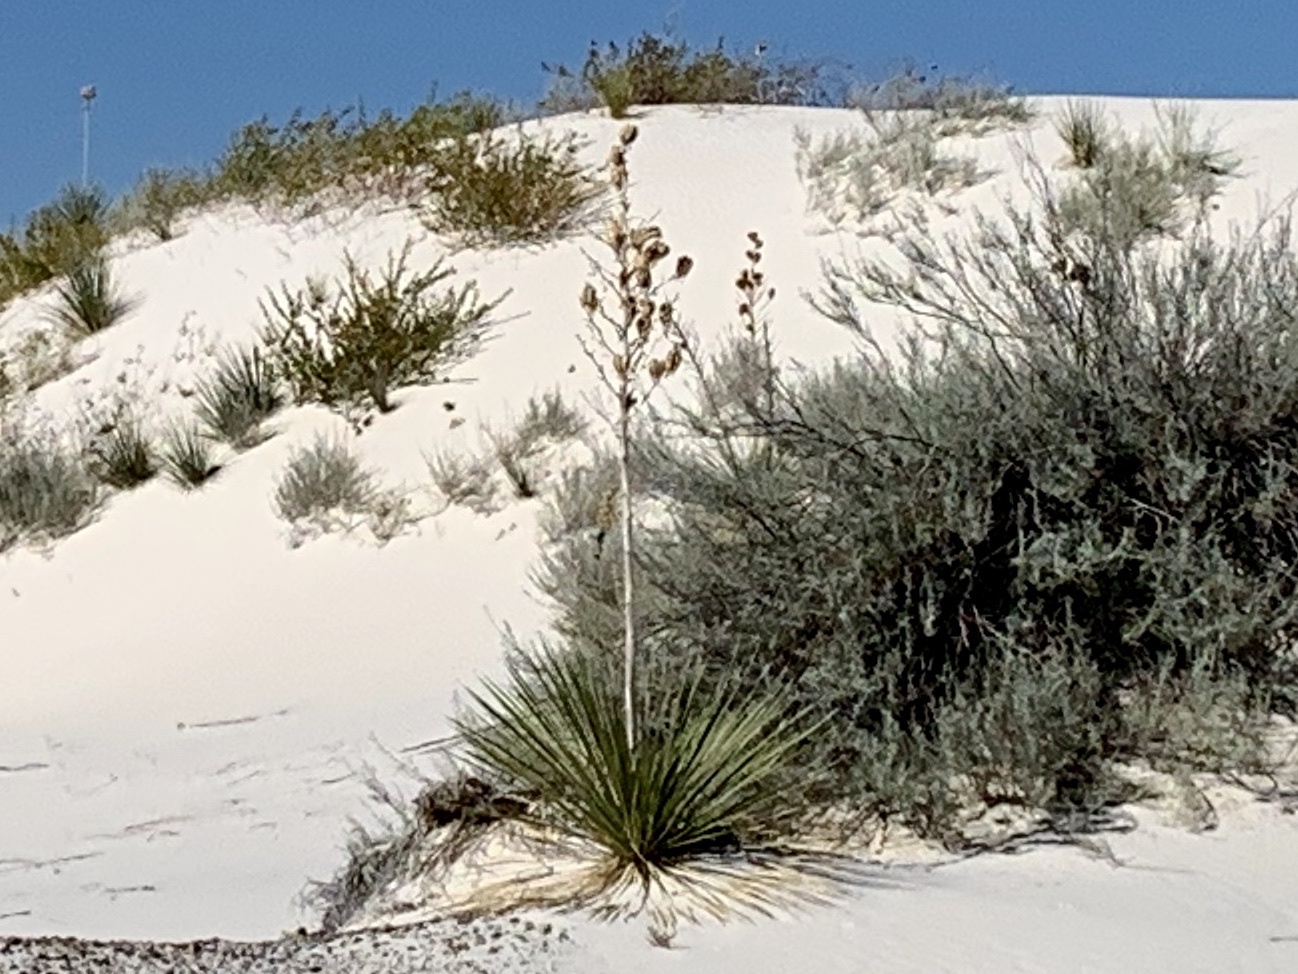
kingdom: Plantae
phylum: Tracheophyta
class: Liliopsida
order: Asparagales
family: Asparagaceae
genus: Yucca
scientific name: Yucca elata
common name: Palmella
